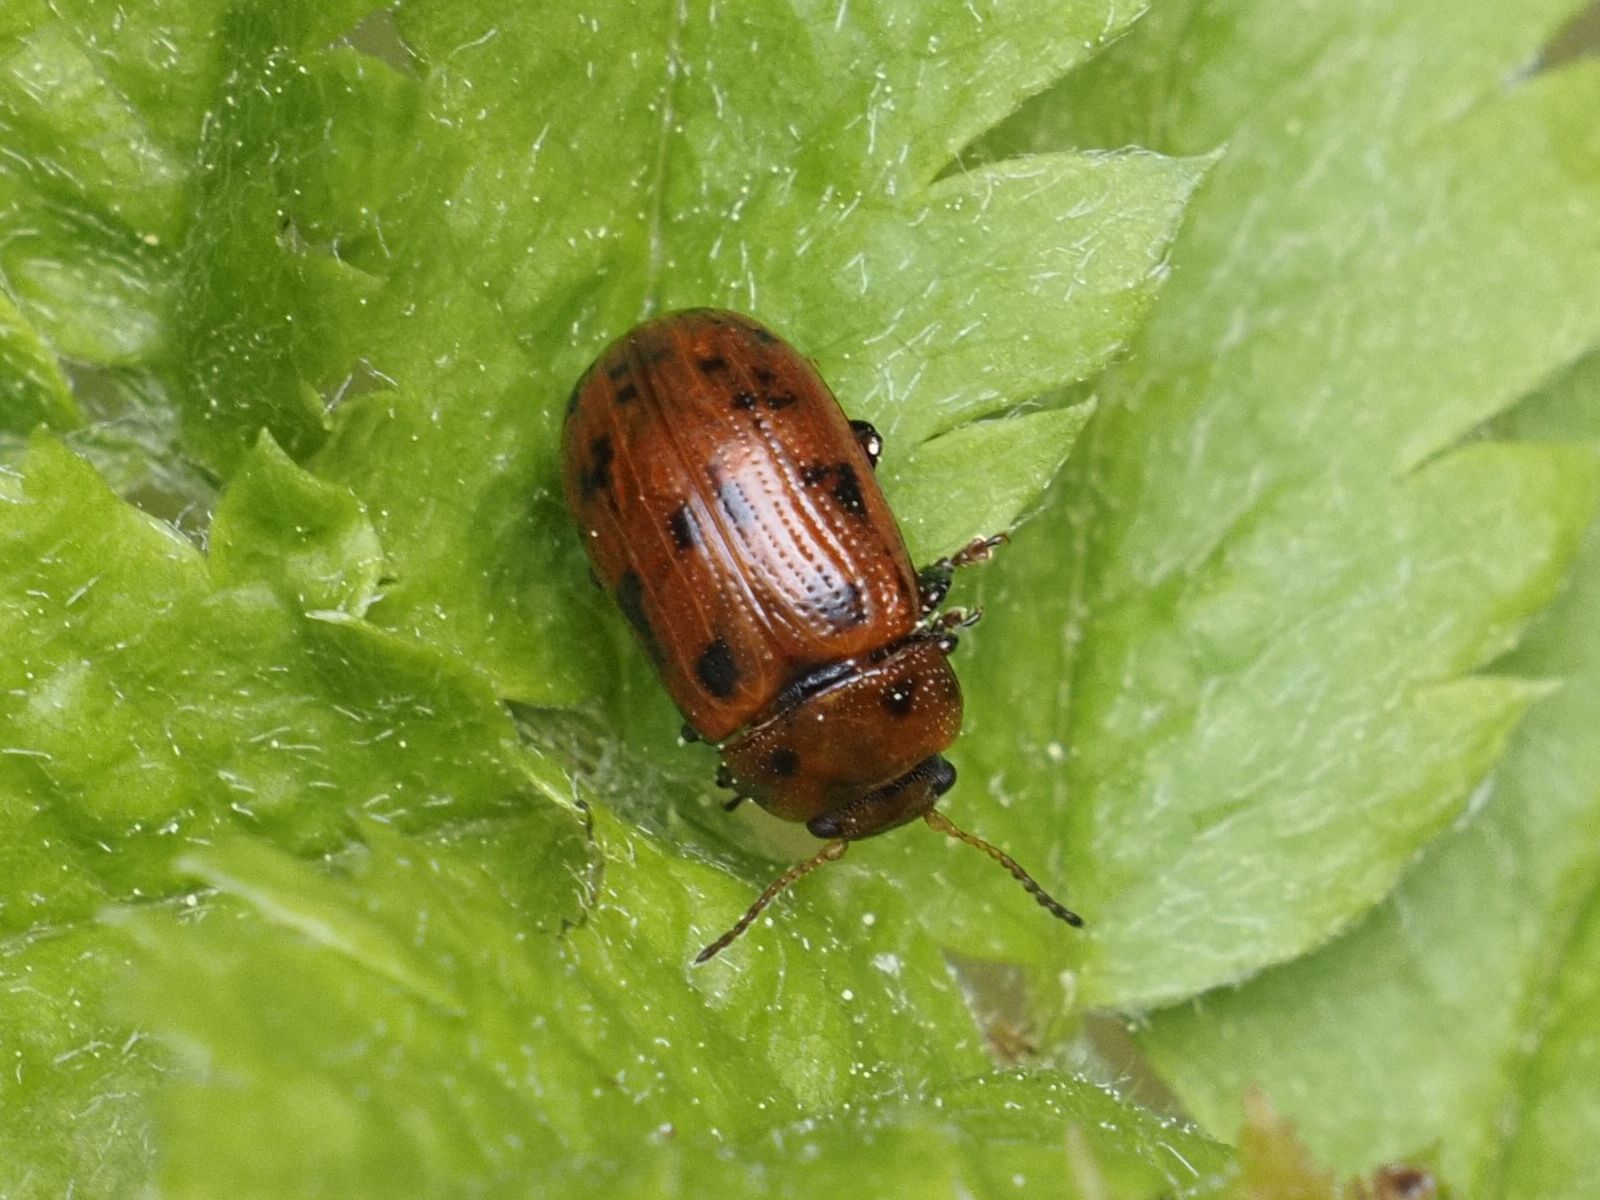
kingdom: Animalia
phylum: Arthropoda
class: Insecta
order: Coleoptera
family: Chrysomelidae
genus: Gonioctena
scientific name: Gonioctena quinquepunctata
